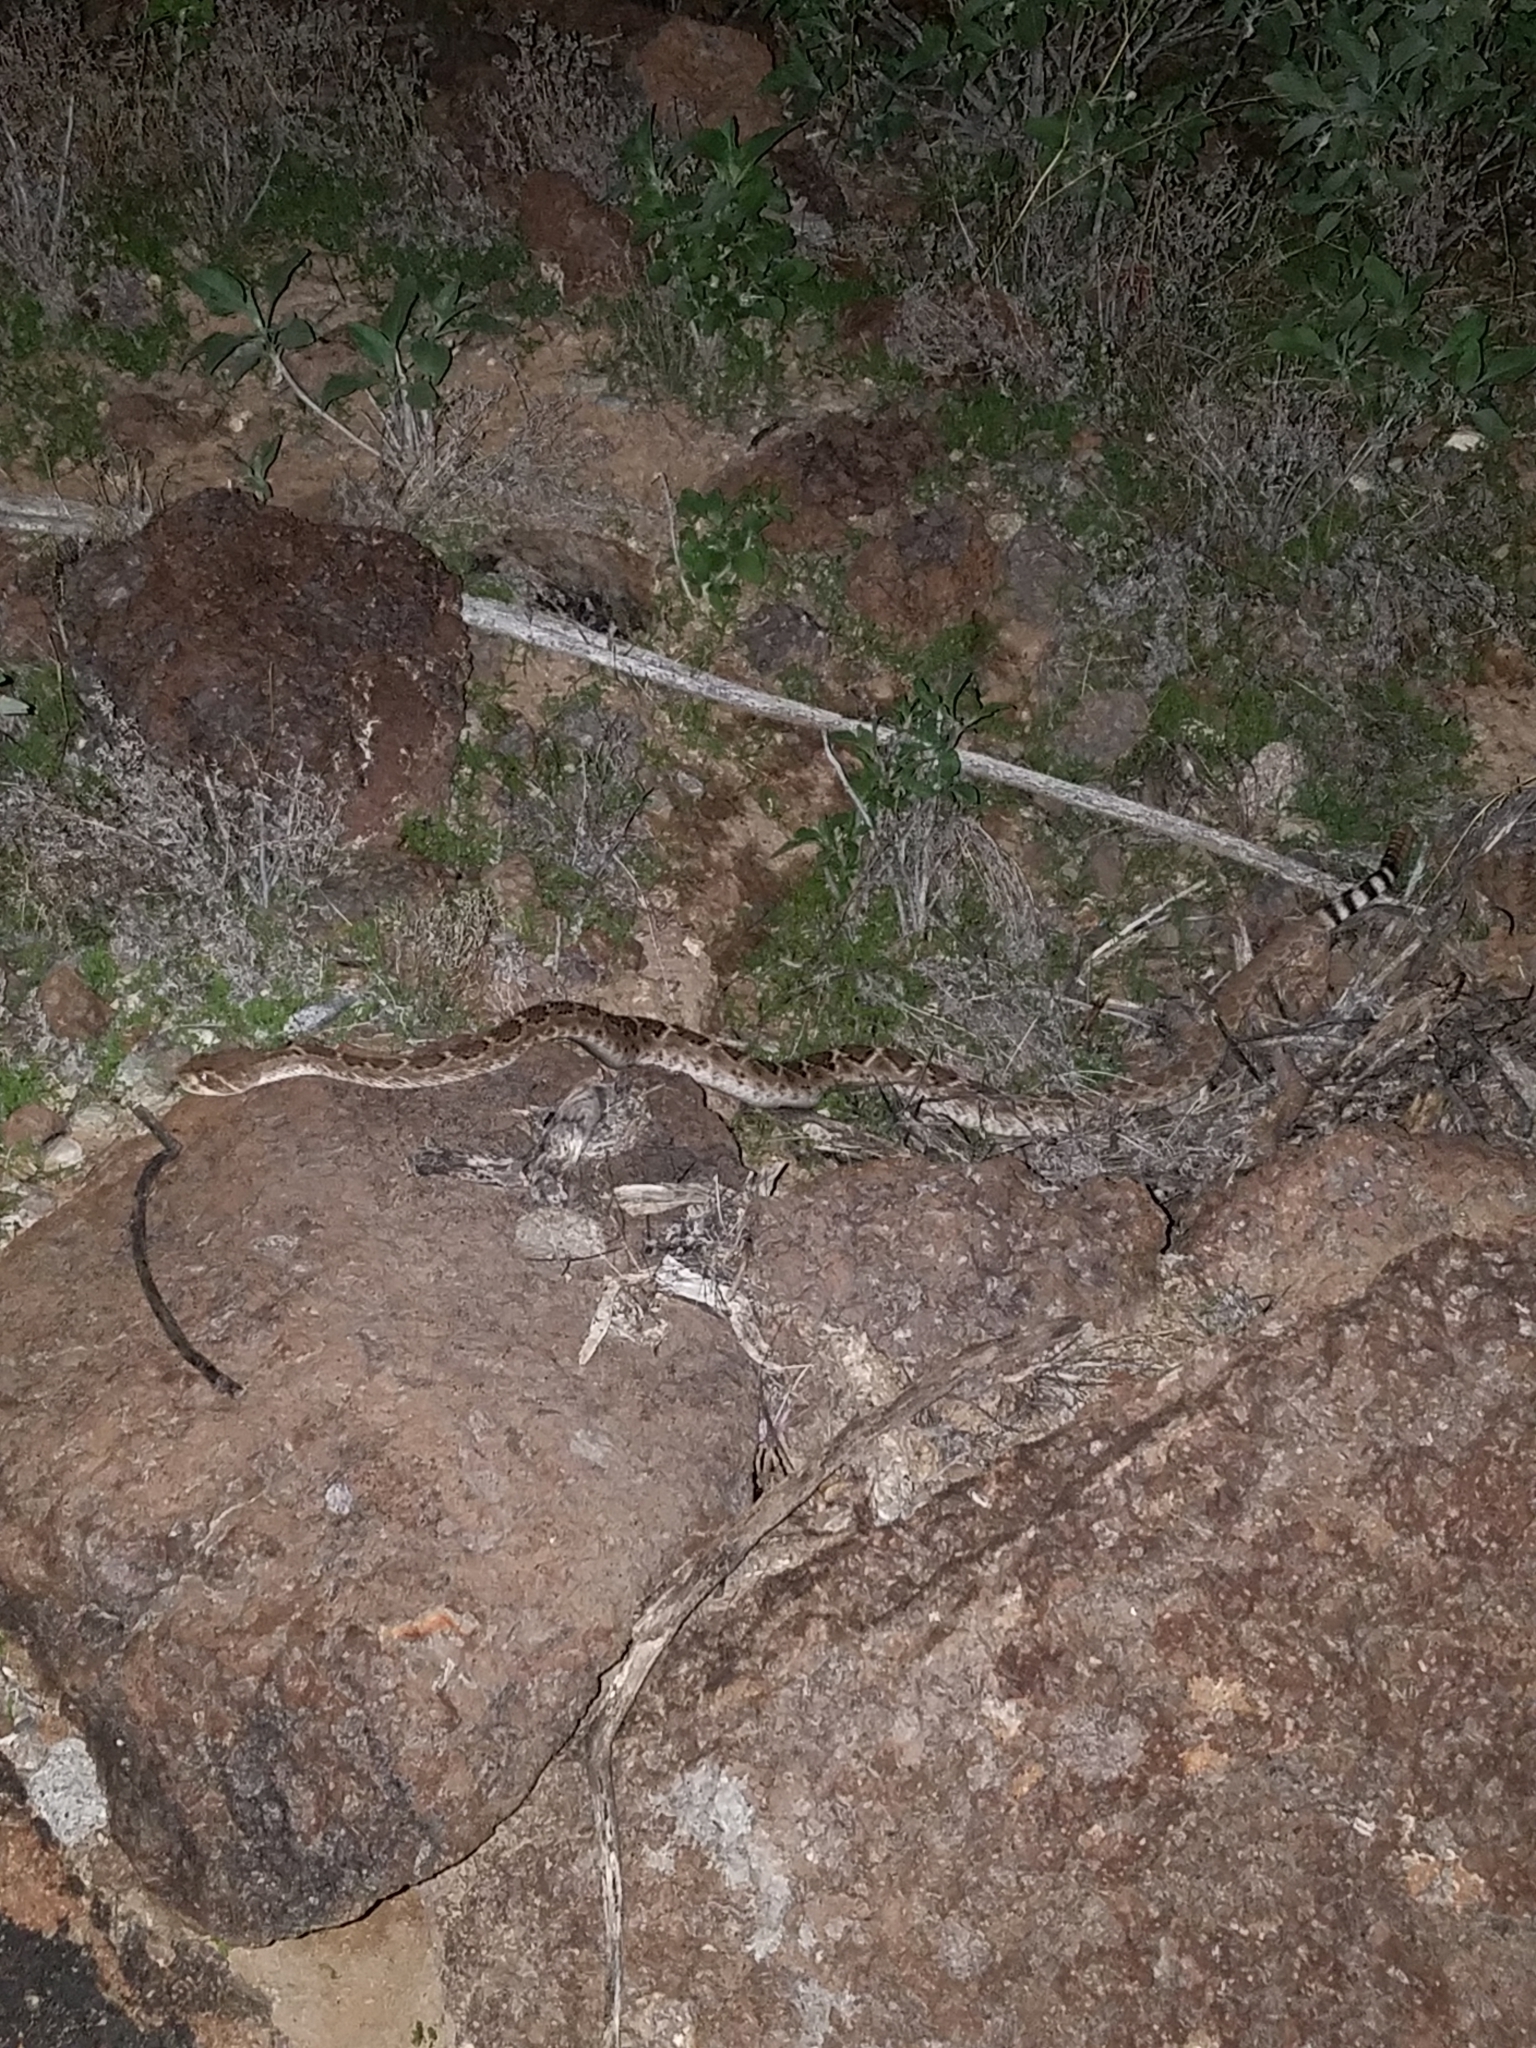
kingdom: Animalia
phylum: Chordata
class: Squamata
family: Viperidae
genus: Crotalus
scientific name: Crotalus atrox
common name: Western diamond-backed rattlesnake
